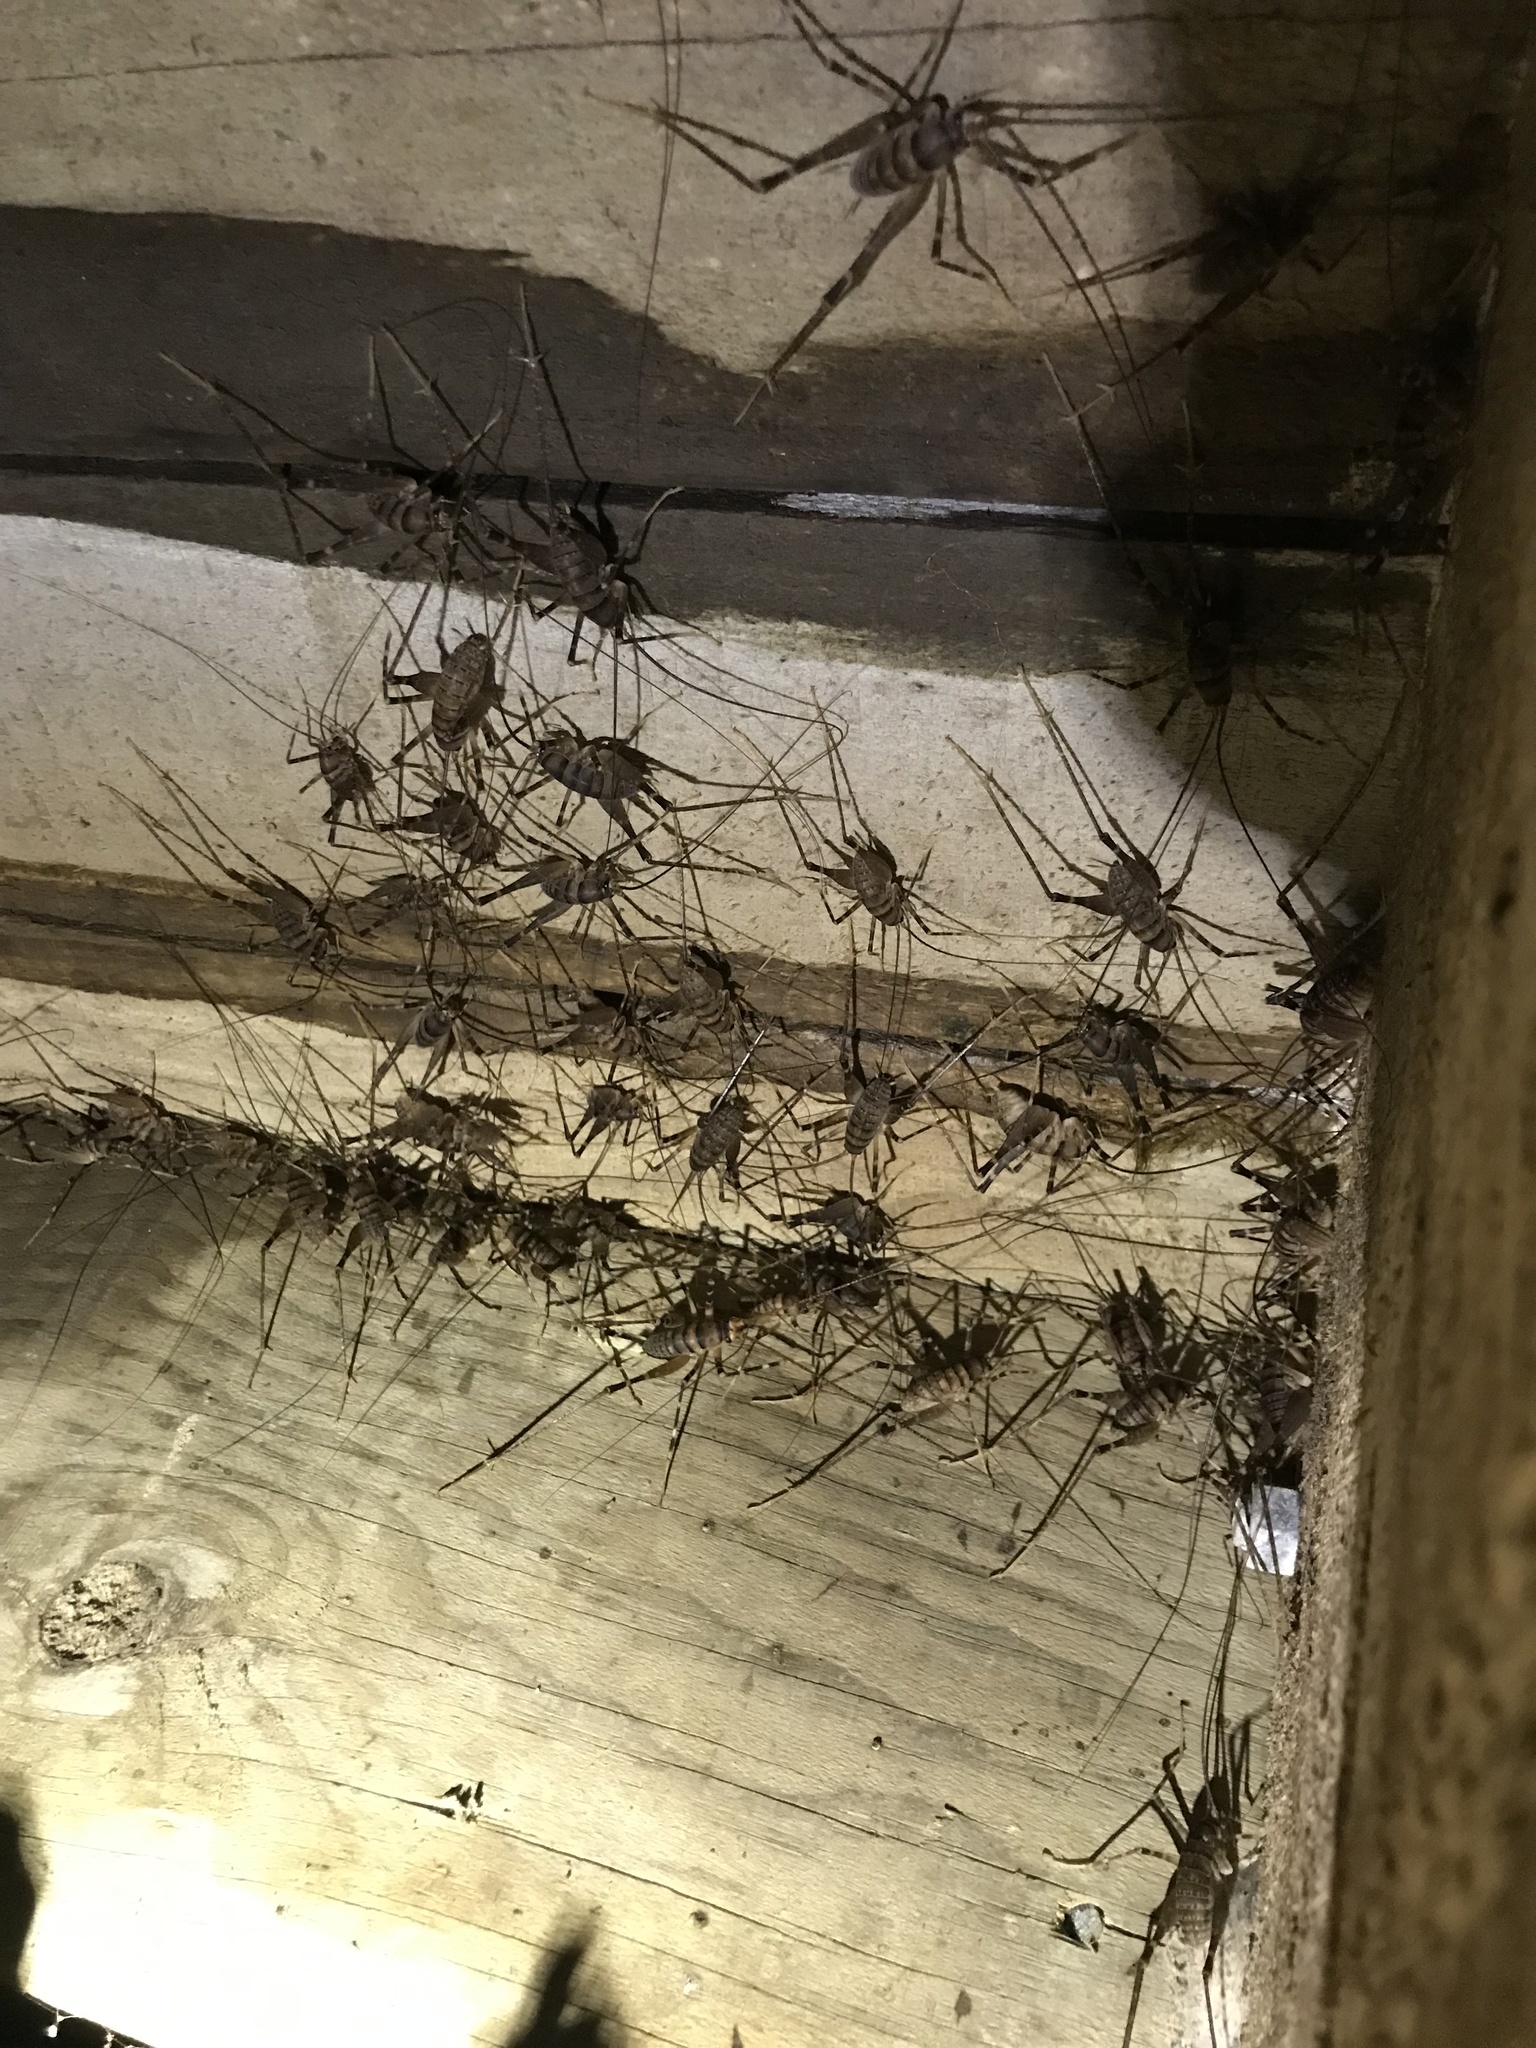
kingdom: Animalia
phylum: Arthropoda
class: Insecta
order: Orthoptera
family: Rhaphidophoridae
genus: Pachyrhamma
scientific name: Pachyrhamma edwardsii
